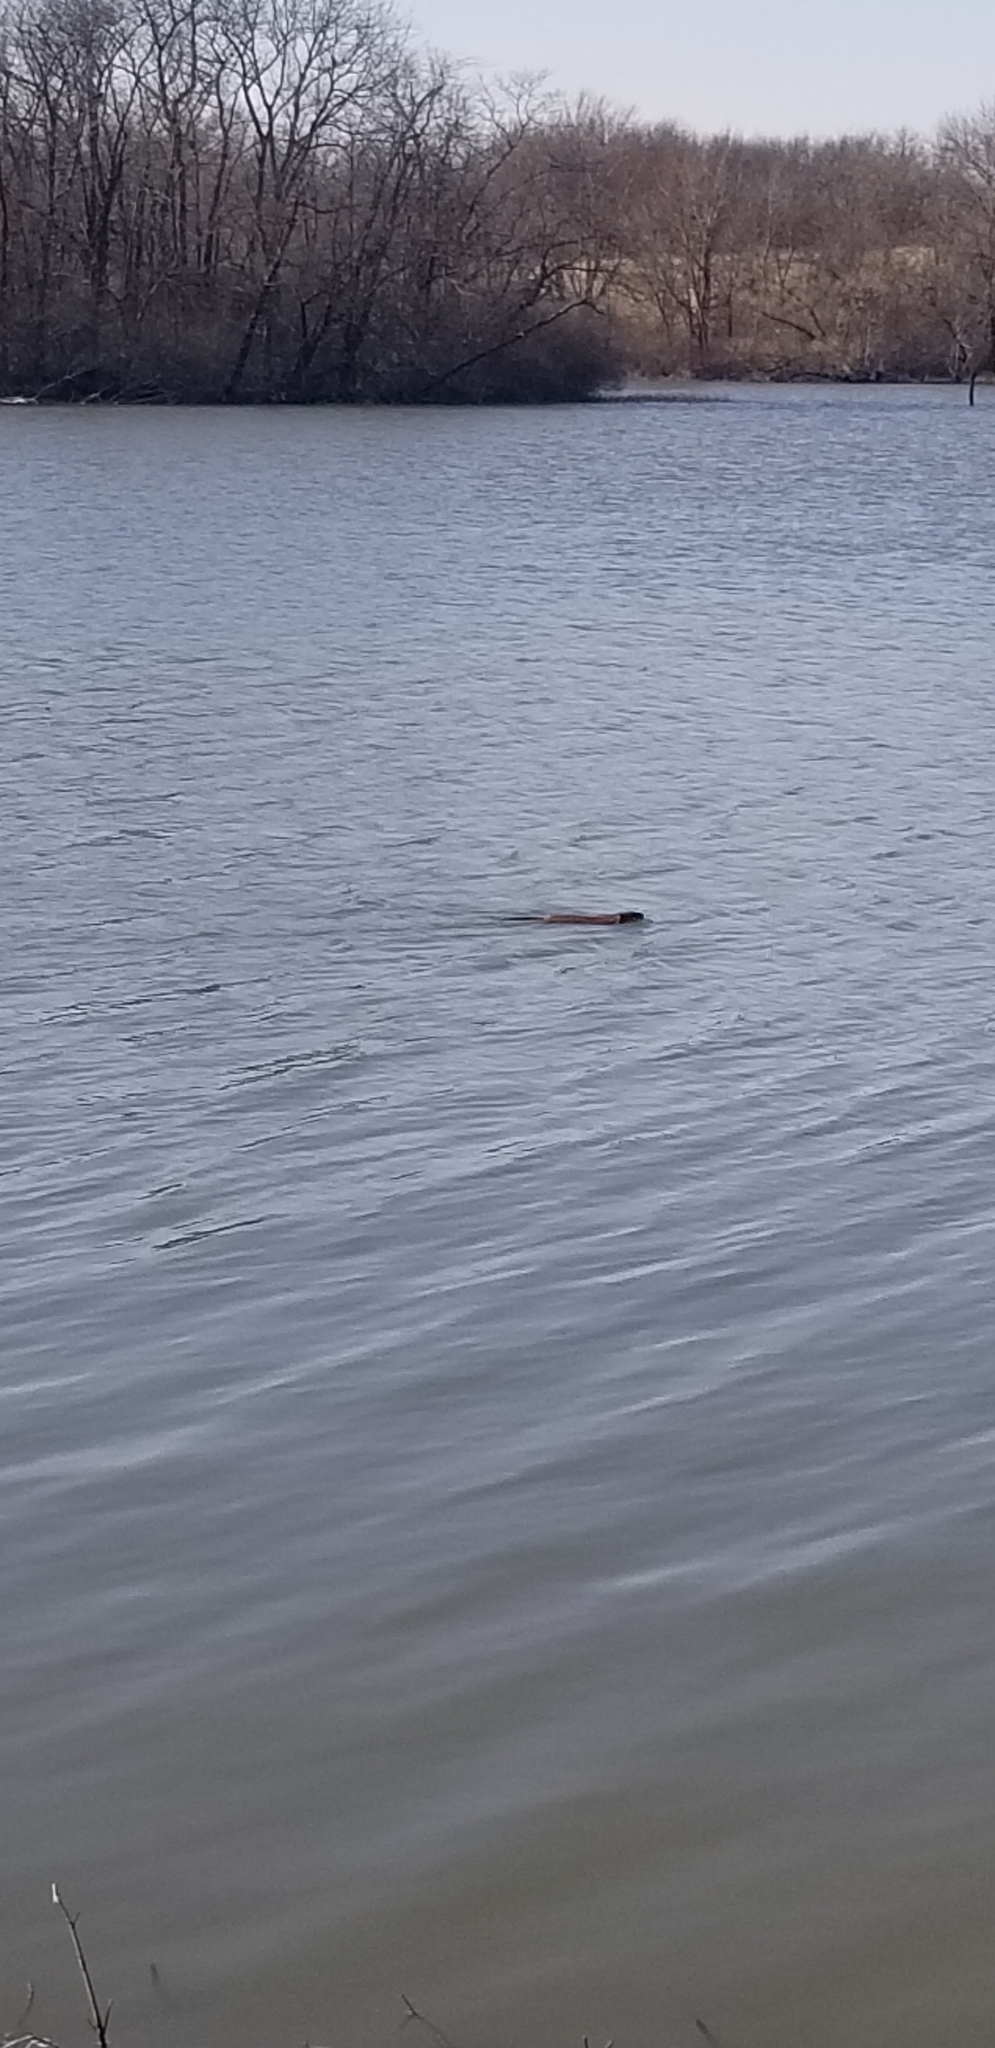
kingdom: Animalia
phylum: Chordata
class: Mammalia
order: Rodentia
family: Cricetidae
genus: Ondatra
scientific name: Ondatra zibethicus
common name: Muskrat
